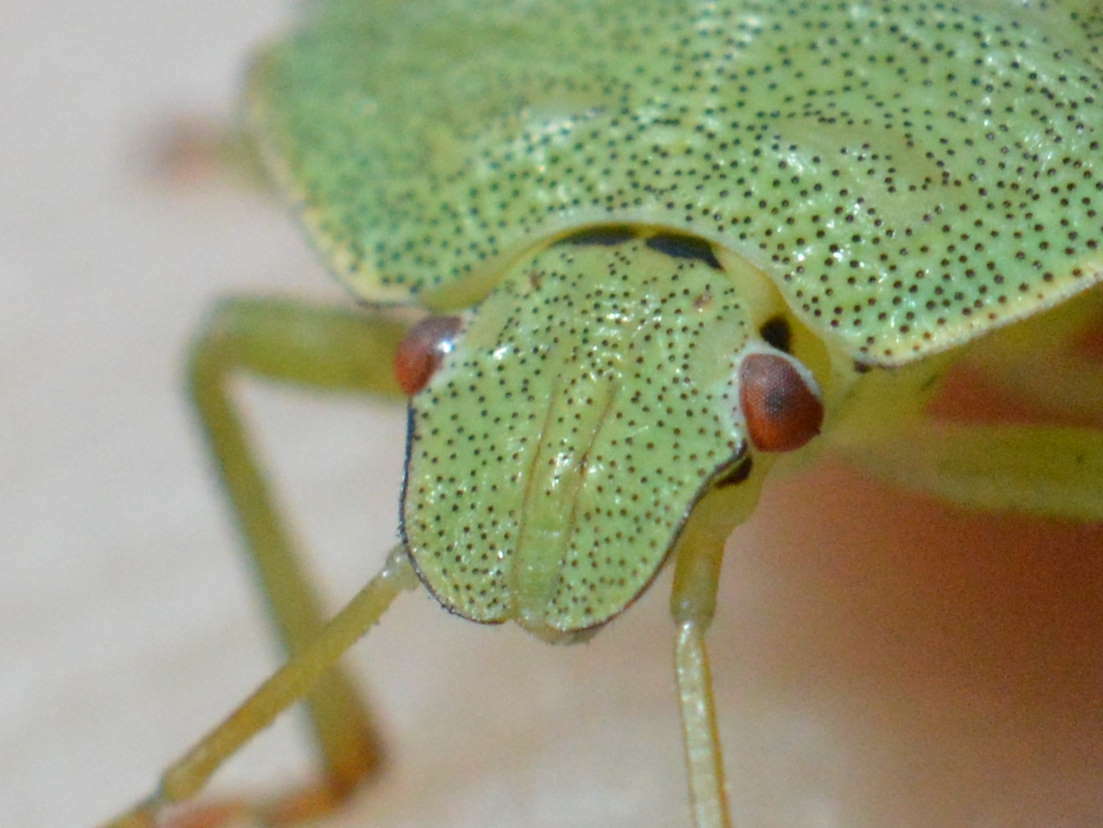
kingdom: Animalia
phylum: Arthropoda
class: Insecta
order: Hemiptera
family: Pentatomidae
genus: Palomena
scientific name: Palomena prasina
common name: Green shieldbug
